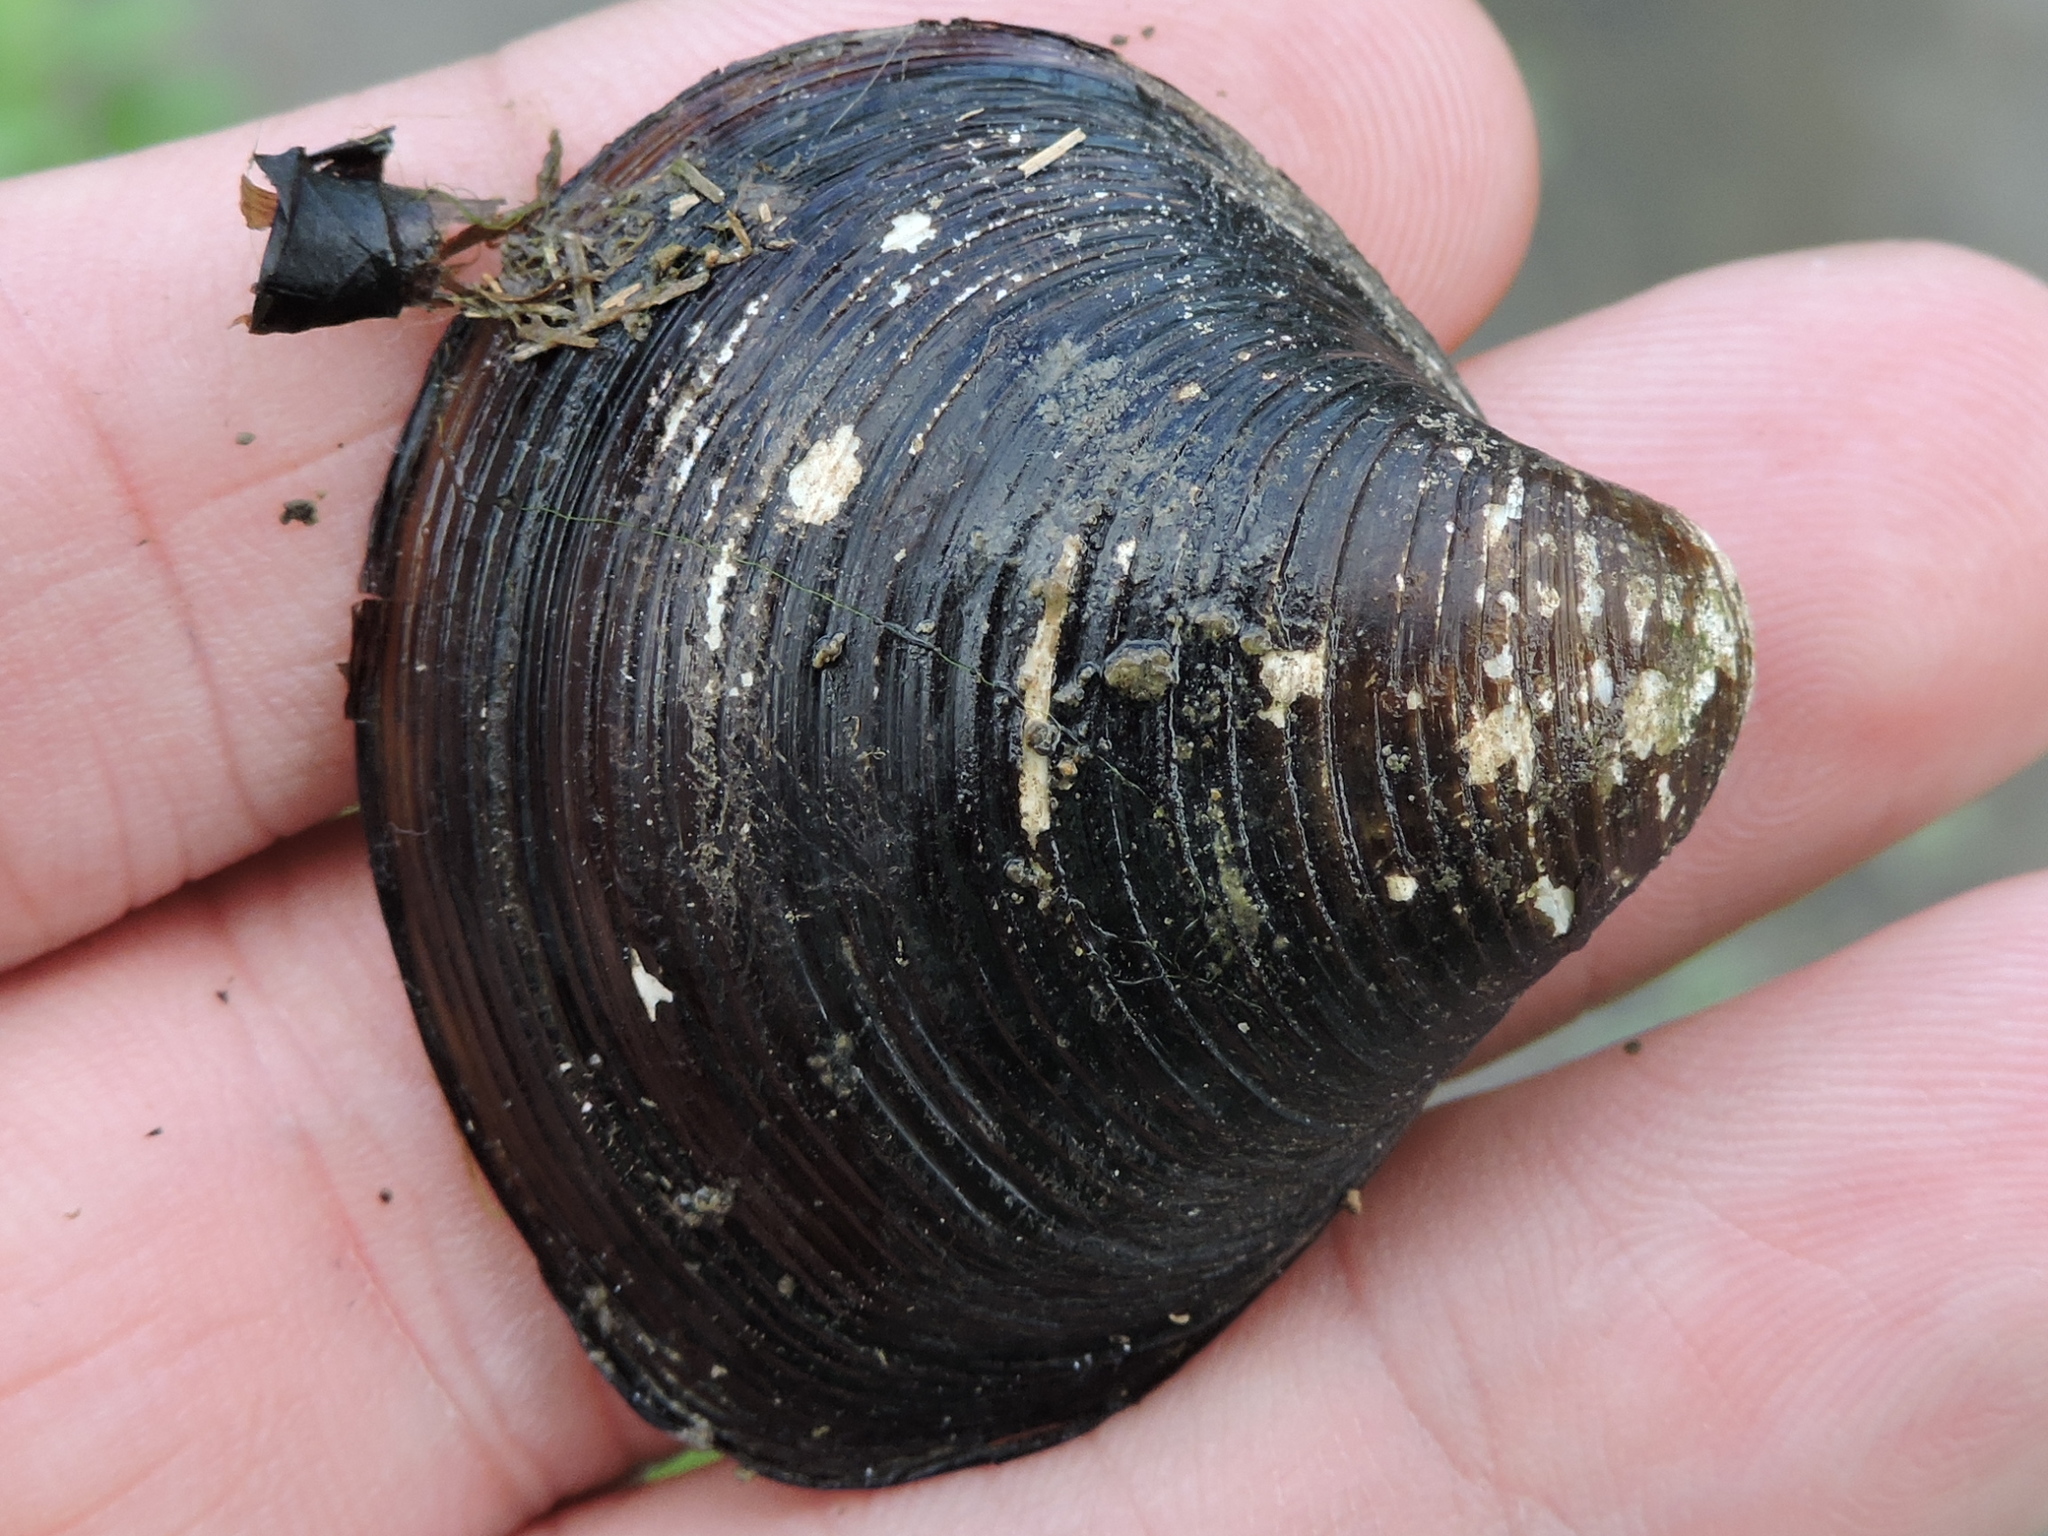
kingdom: Animalia
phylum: Mollusca
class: Bivalvia
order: Venerida
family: Cyrenidae
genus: Corbicula
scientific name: Corbicula fluminea
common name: Asian clam
